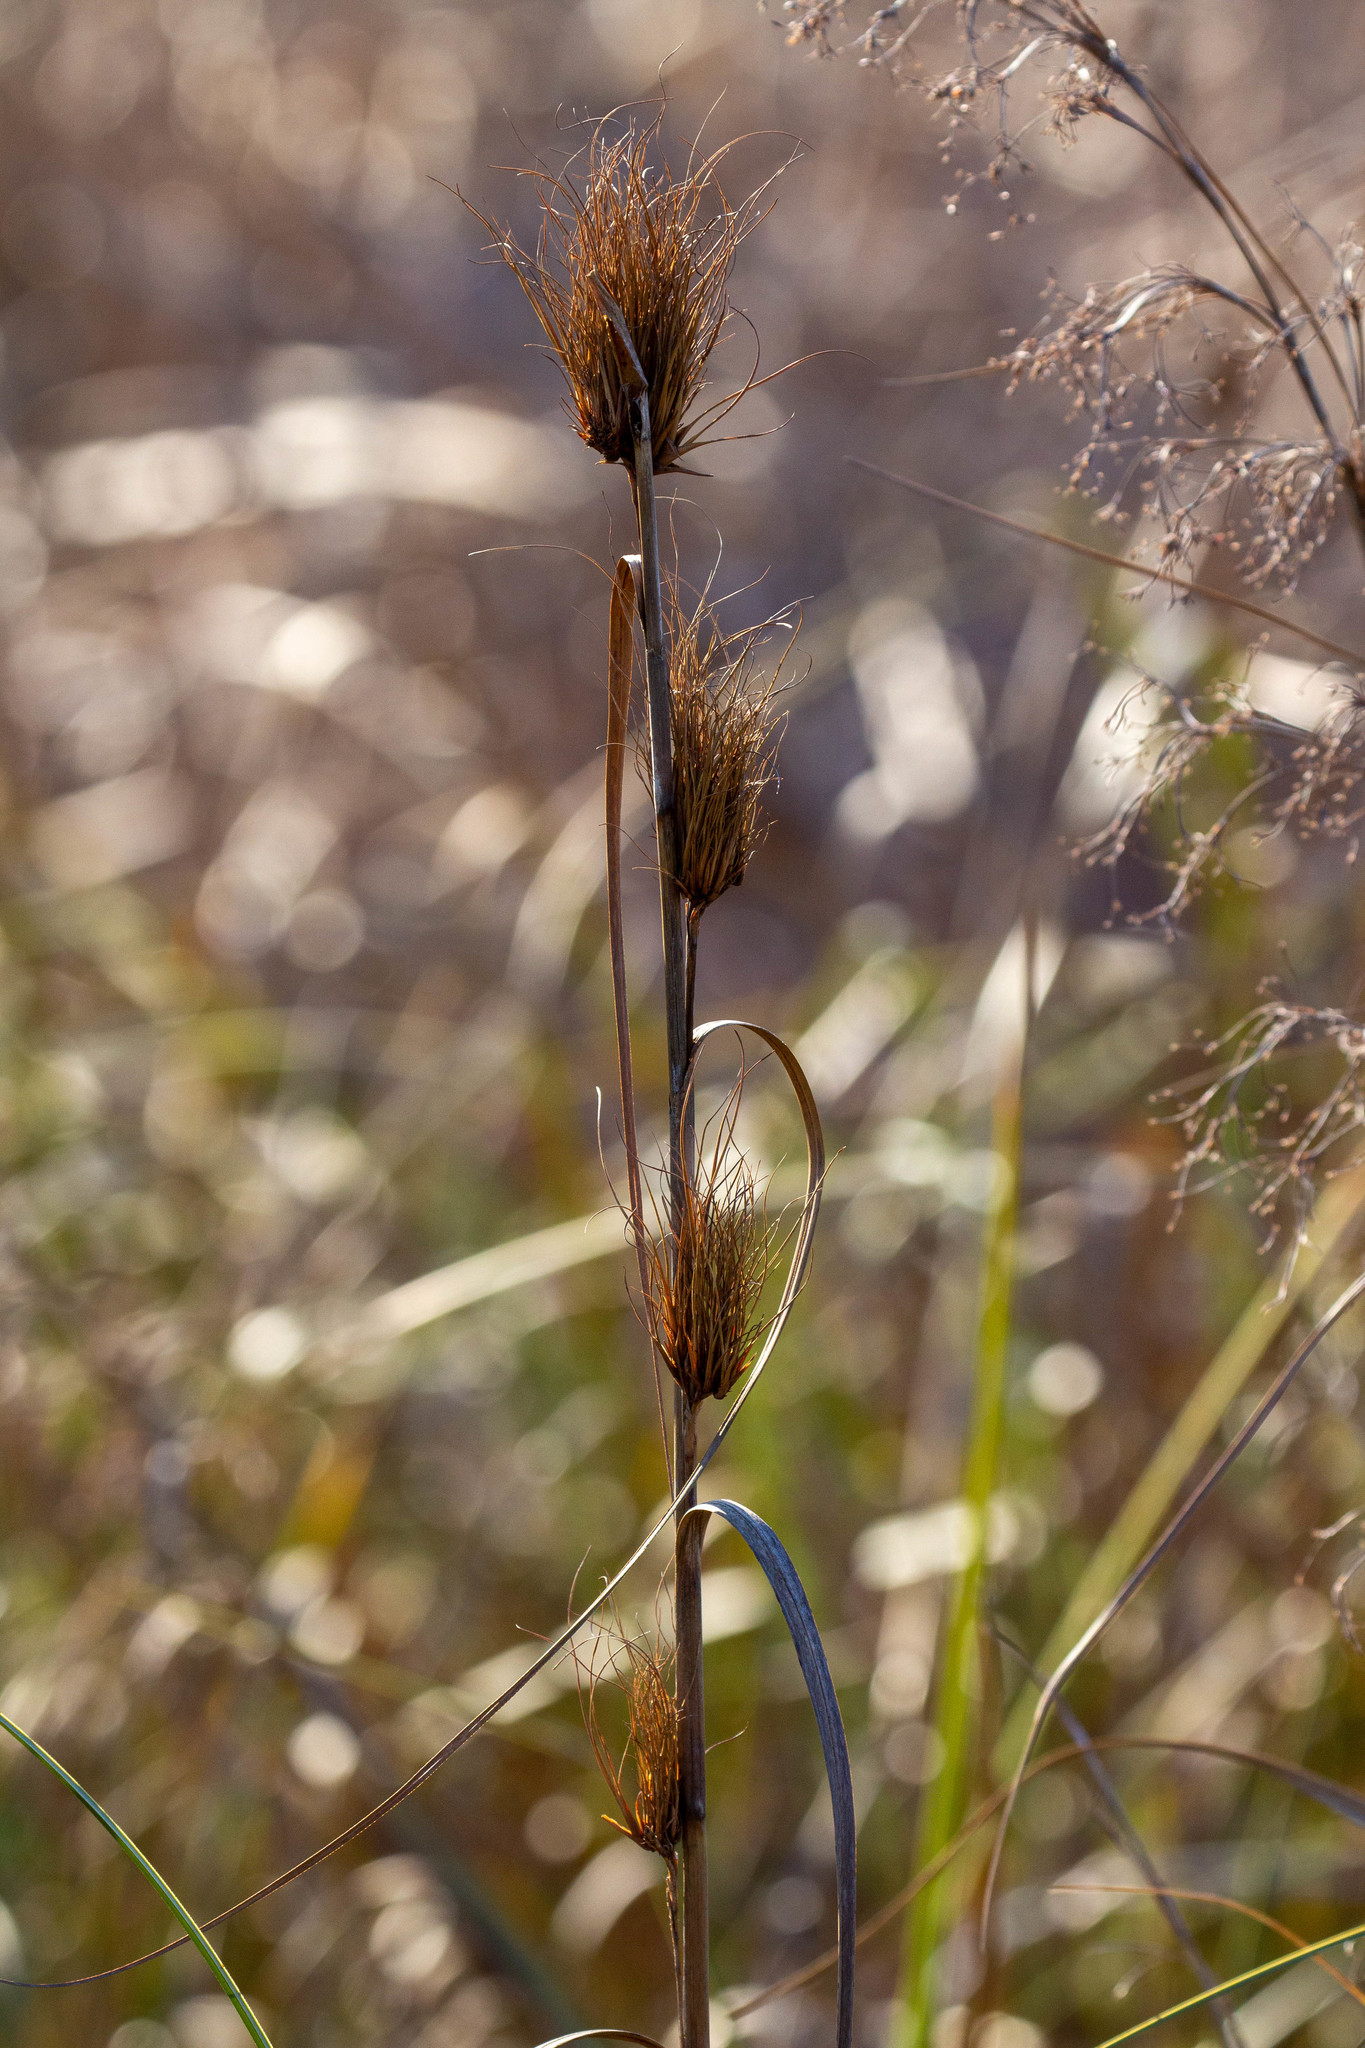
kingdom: Plantae
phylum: Tracheophyta
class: Liliopsida
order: Poales
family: Cyperaceae
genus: Cladium
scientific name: Cladium mariscus
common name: Great fen-sedge
